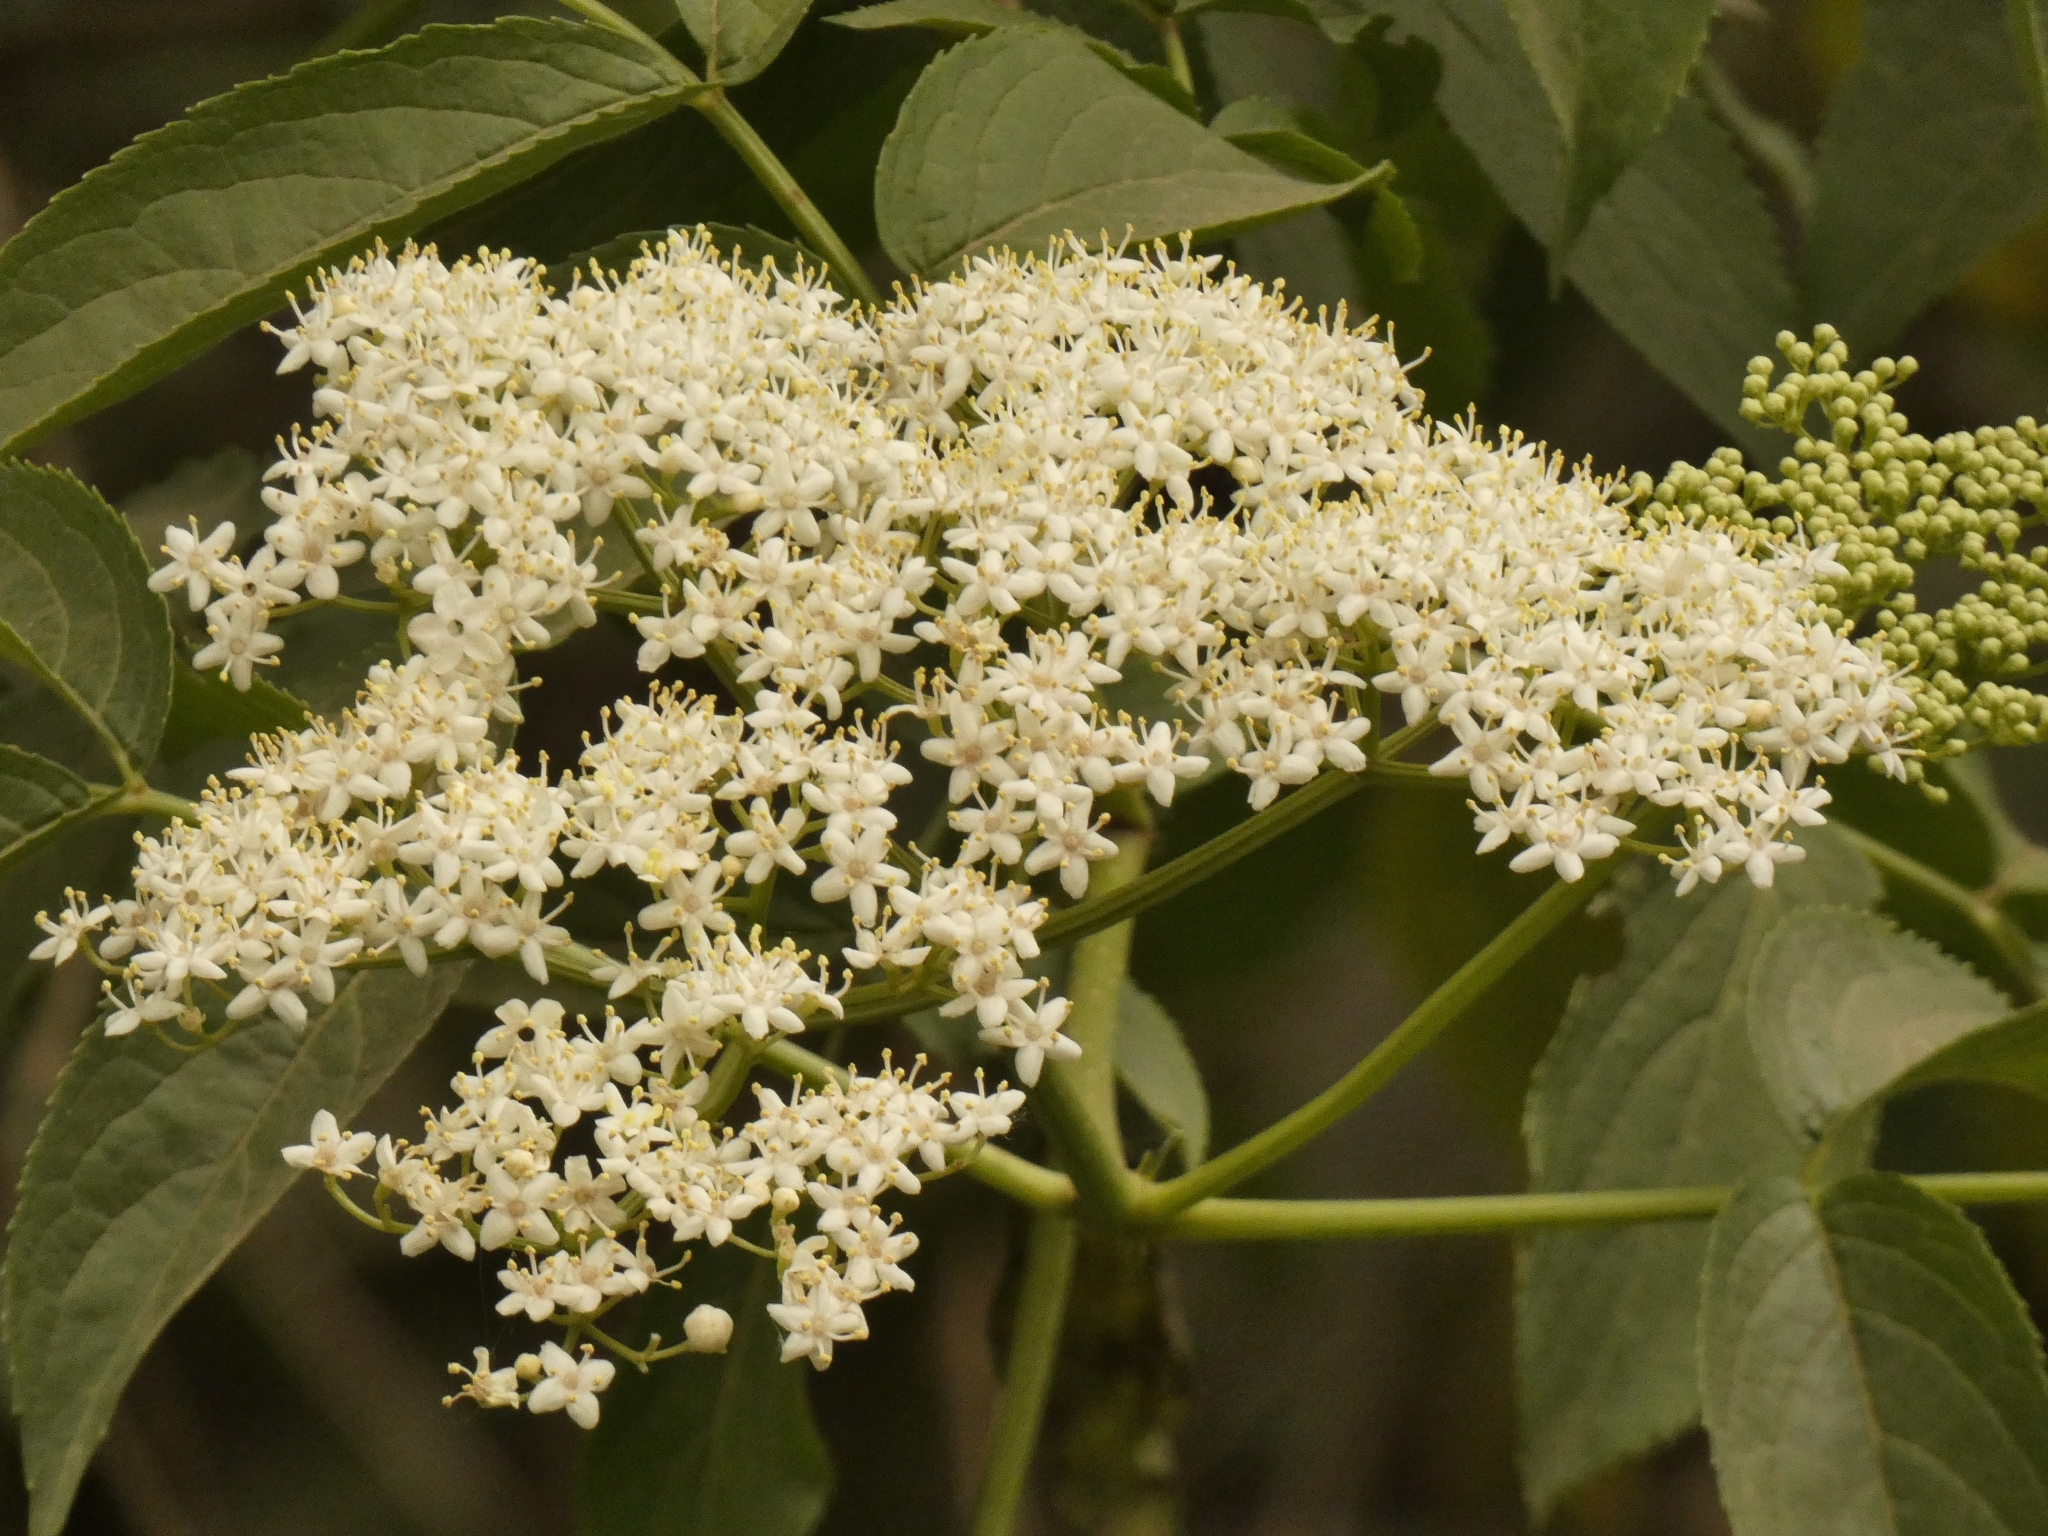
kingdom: Plantae
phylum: Tracheophyta
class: Magnoliopsida
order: Dipsacales
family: Viburnaceae
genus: Sambucus
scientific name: Sambucus peruviana
